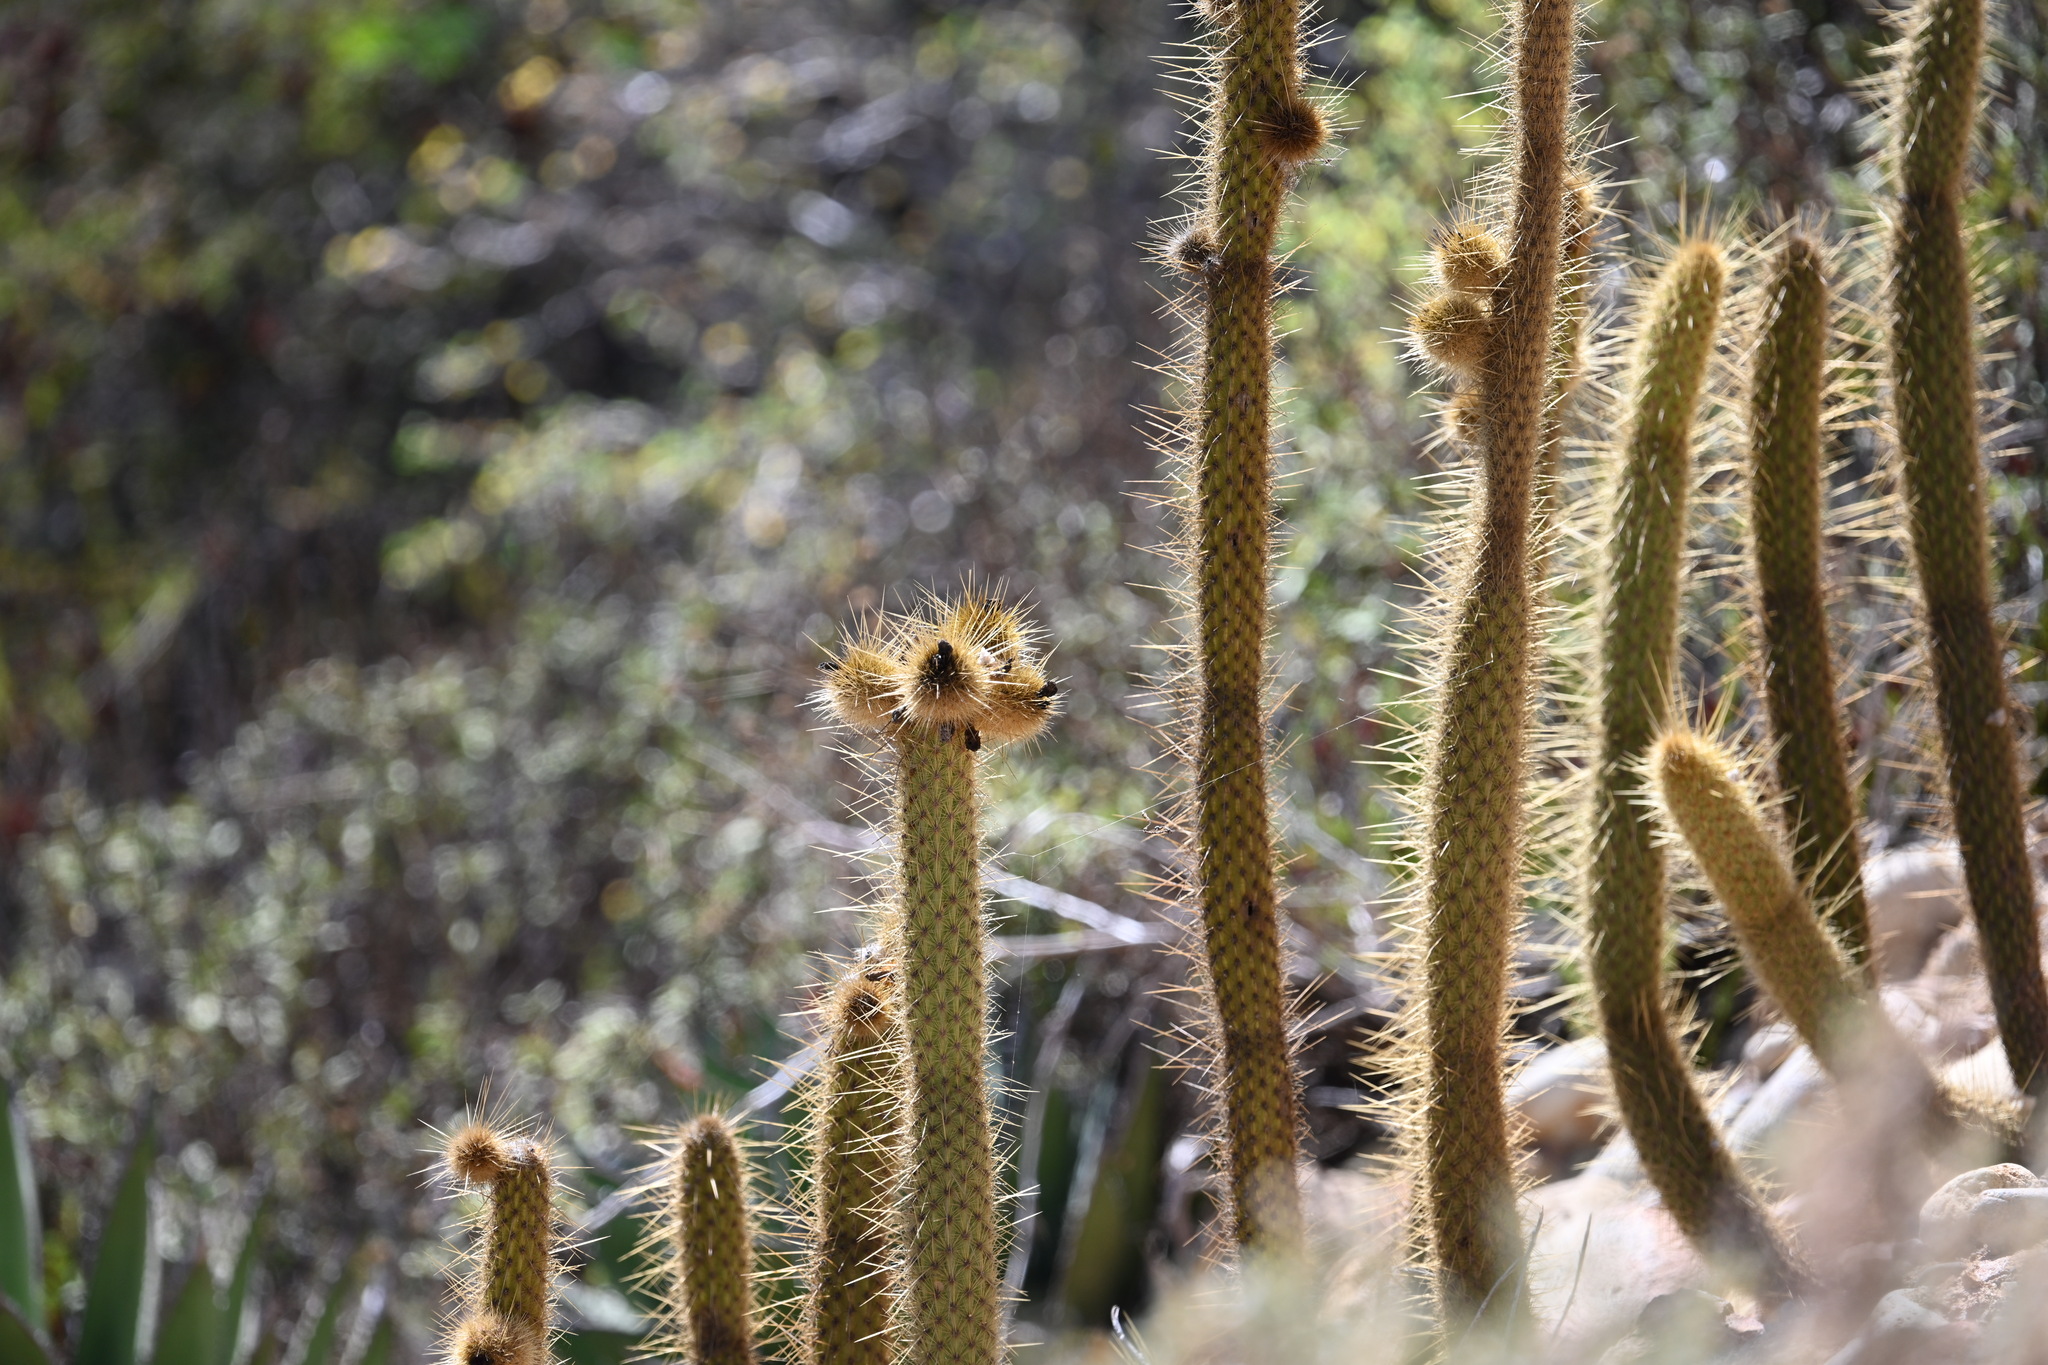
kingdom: Plantae
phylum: Tracheophyta
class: Magnoliopsida
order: Caryophyllales
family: Cactaceae
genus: Bergerocactus
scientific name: Bergerocactus emoryi
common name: Golden snakecactus
